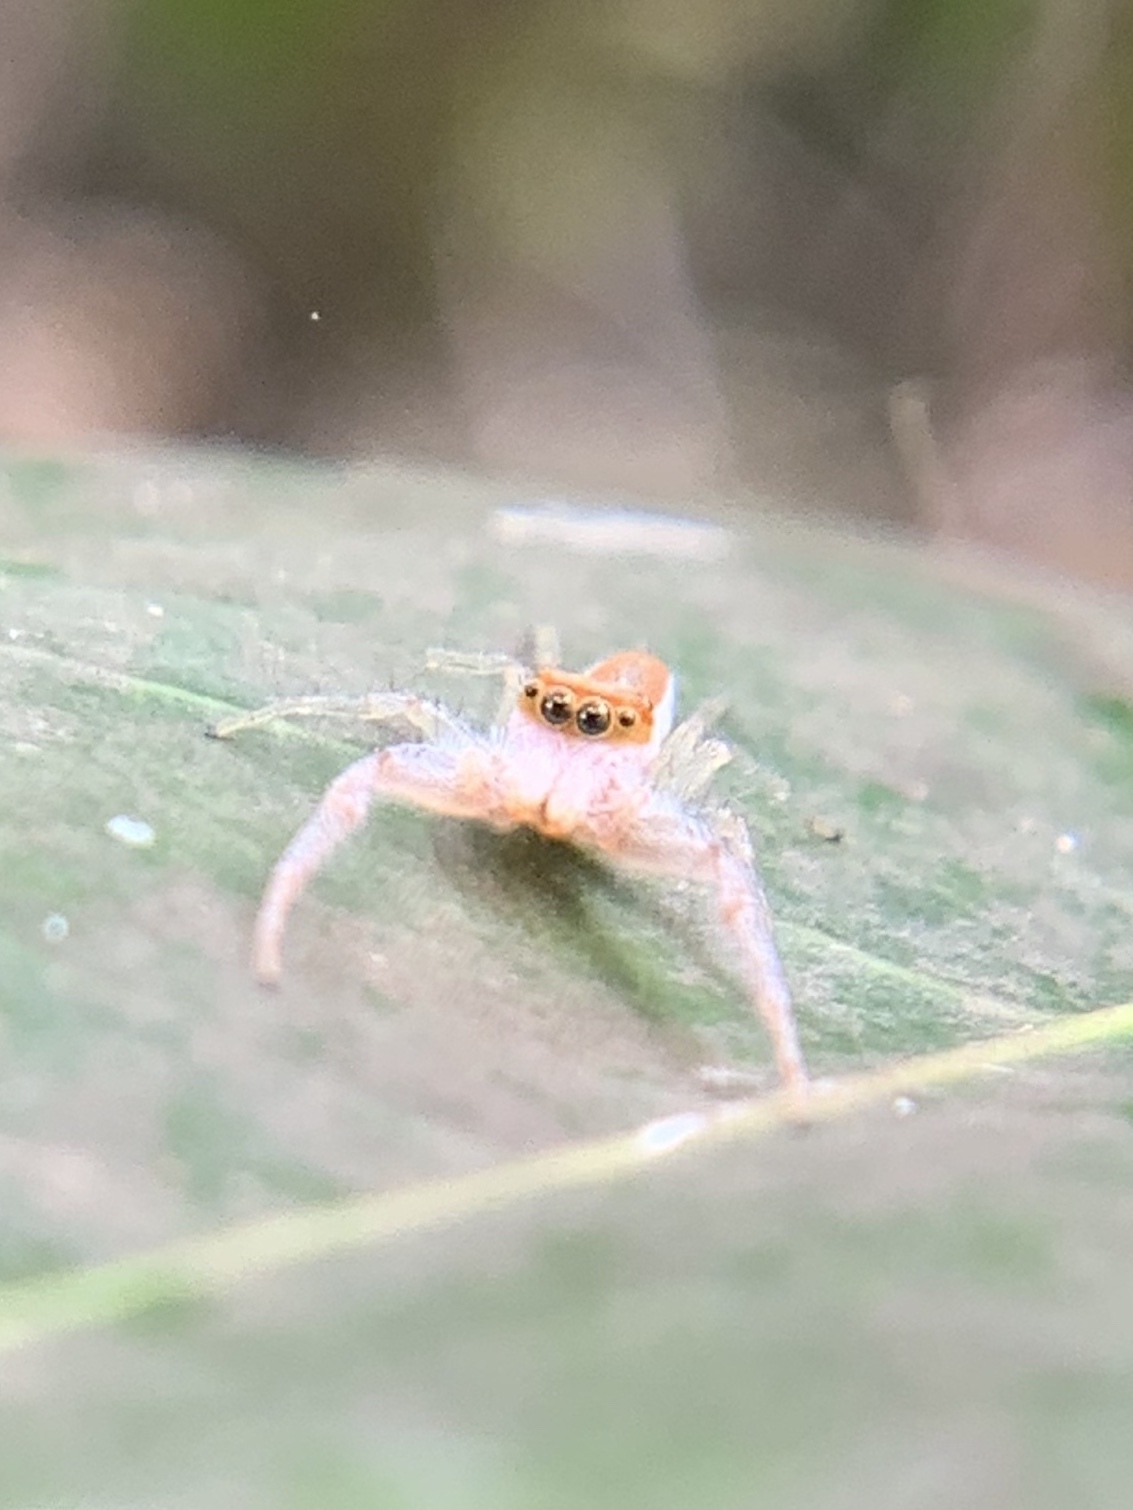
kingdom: Animalia
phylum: Arthropoda
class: Arachnida
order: Araneae
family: Salticidae
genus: Hentzia
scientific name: Hentzia mitrata
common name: White-jawed jumping spider
